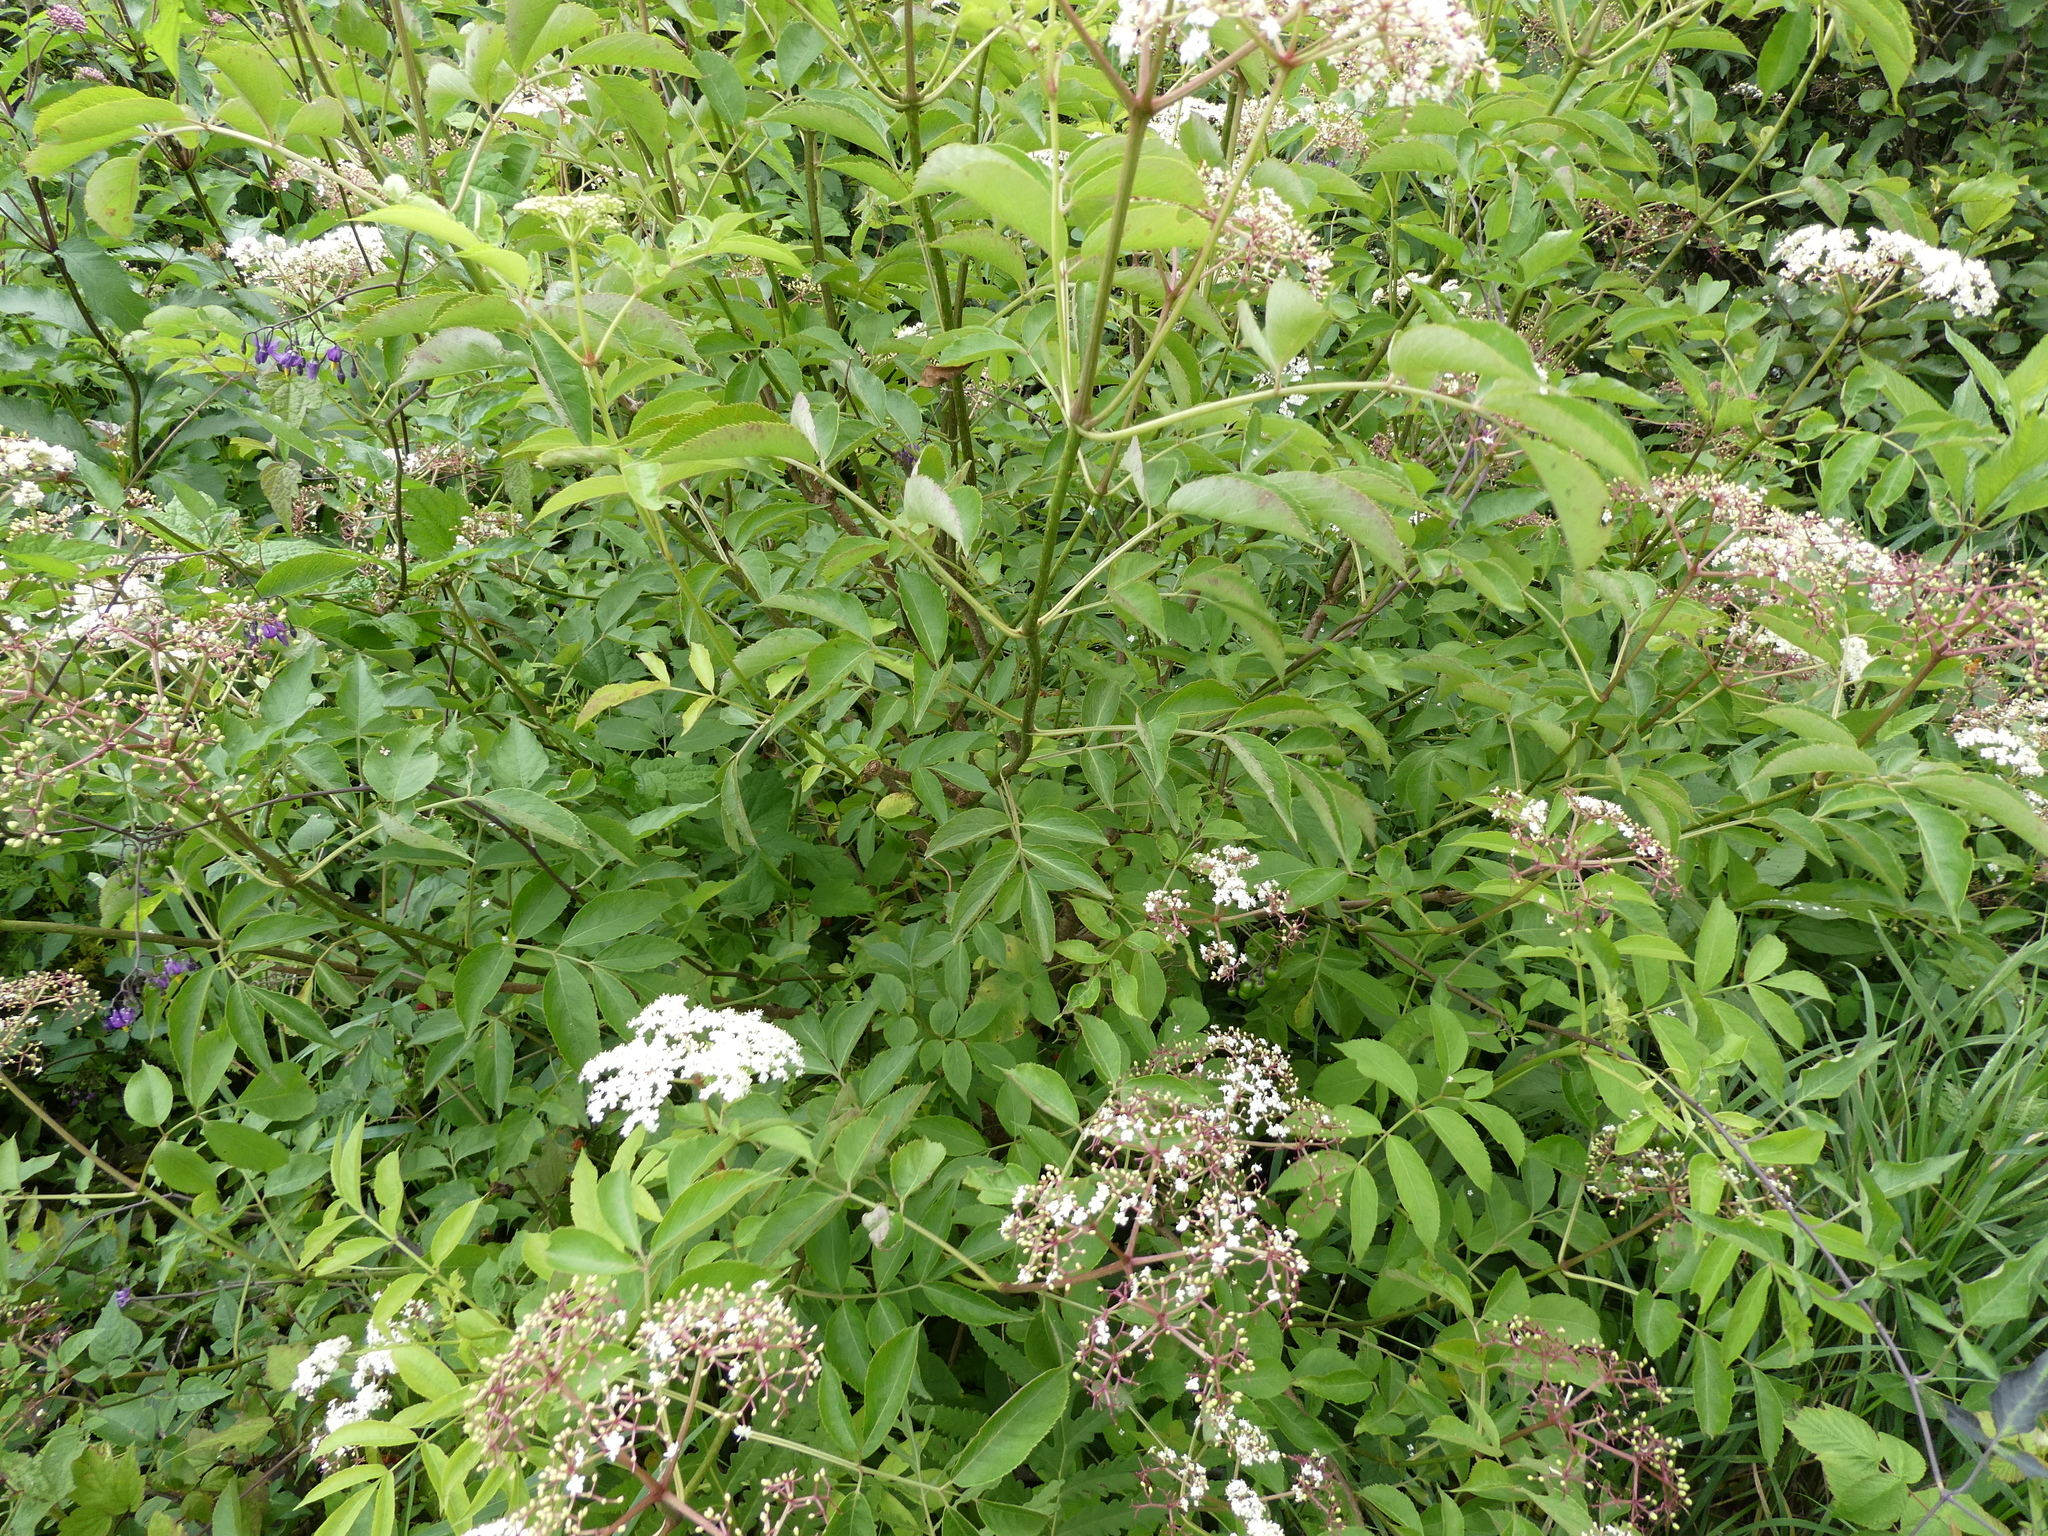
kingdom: Plantae
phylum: Tracheophyta
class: Magnoliopsida
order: Dipsacales
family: Viburnaceae
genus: Sambucus
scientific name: Sambucus canadensis
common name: American elder
